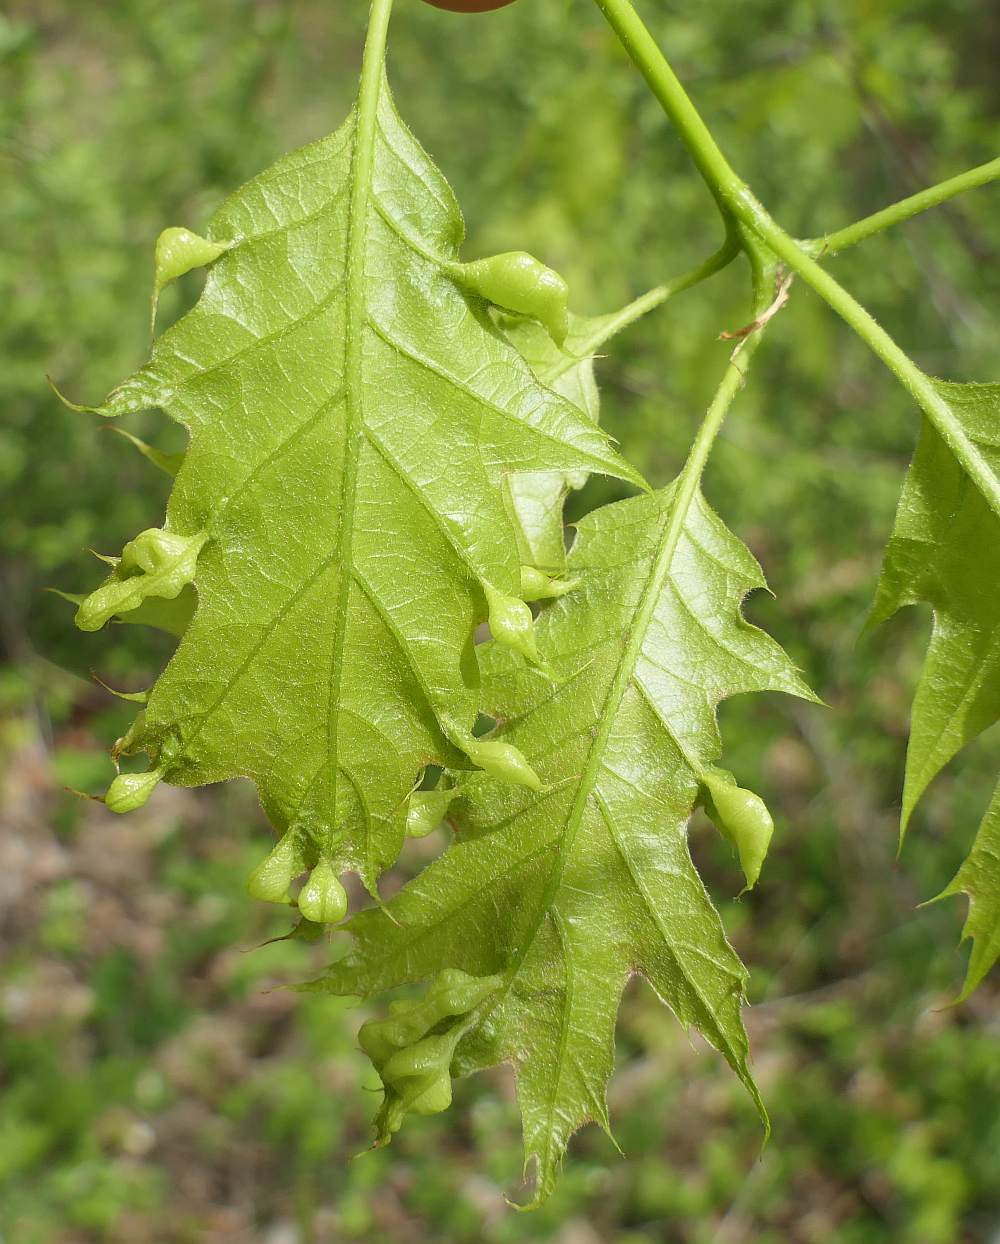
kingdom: Plantae
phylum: Tracheophyta
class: Magnoliopsida
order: Fagales
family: Fagaceae
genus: Quercus
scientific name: Quercus rubra
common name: Red oak
